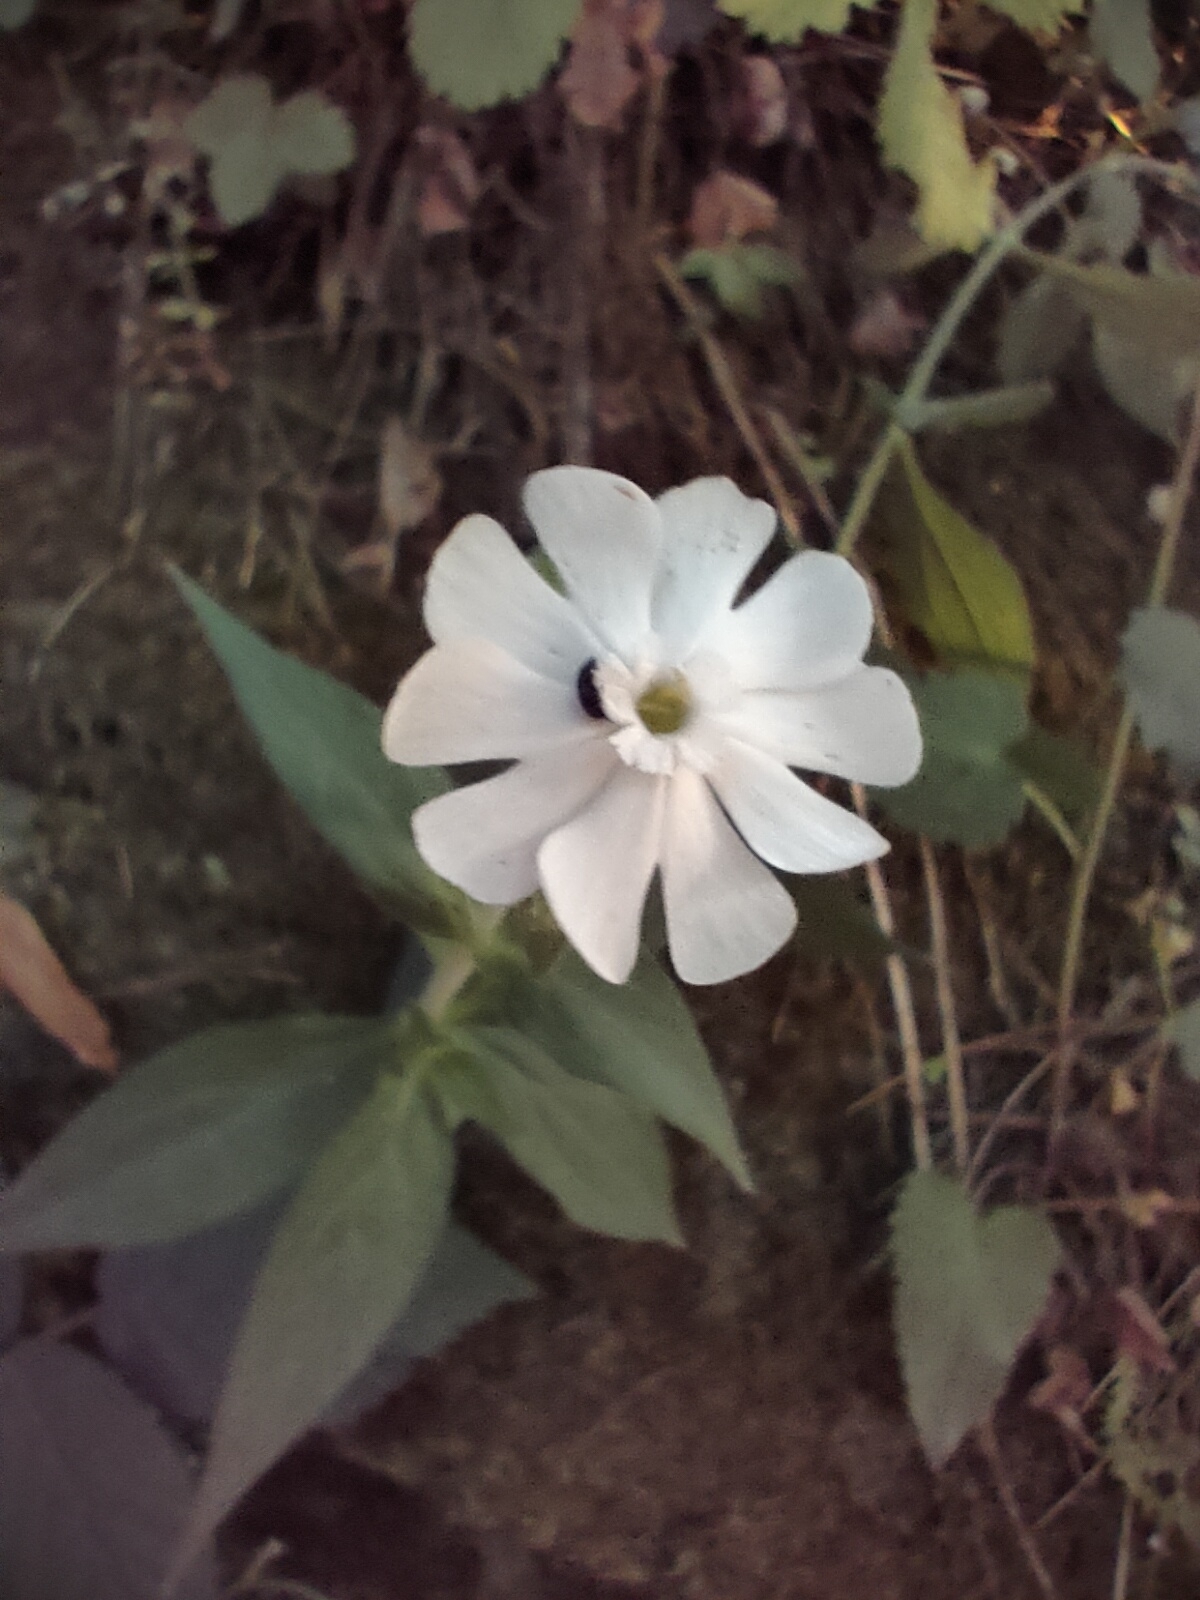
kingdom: Plantae
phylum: Tracheophyta
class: Magnoliopsida
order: Caryophyllales
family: Caryophyllaceae
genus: Silene
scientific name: Silene latifolia
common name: White campion
